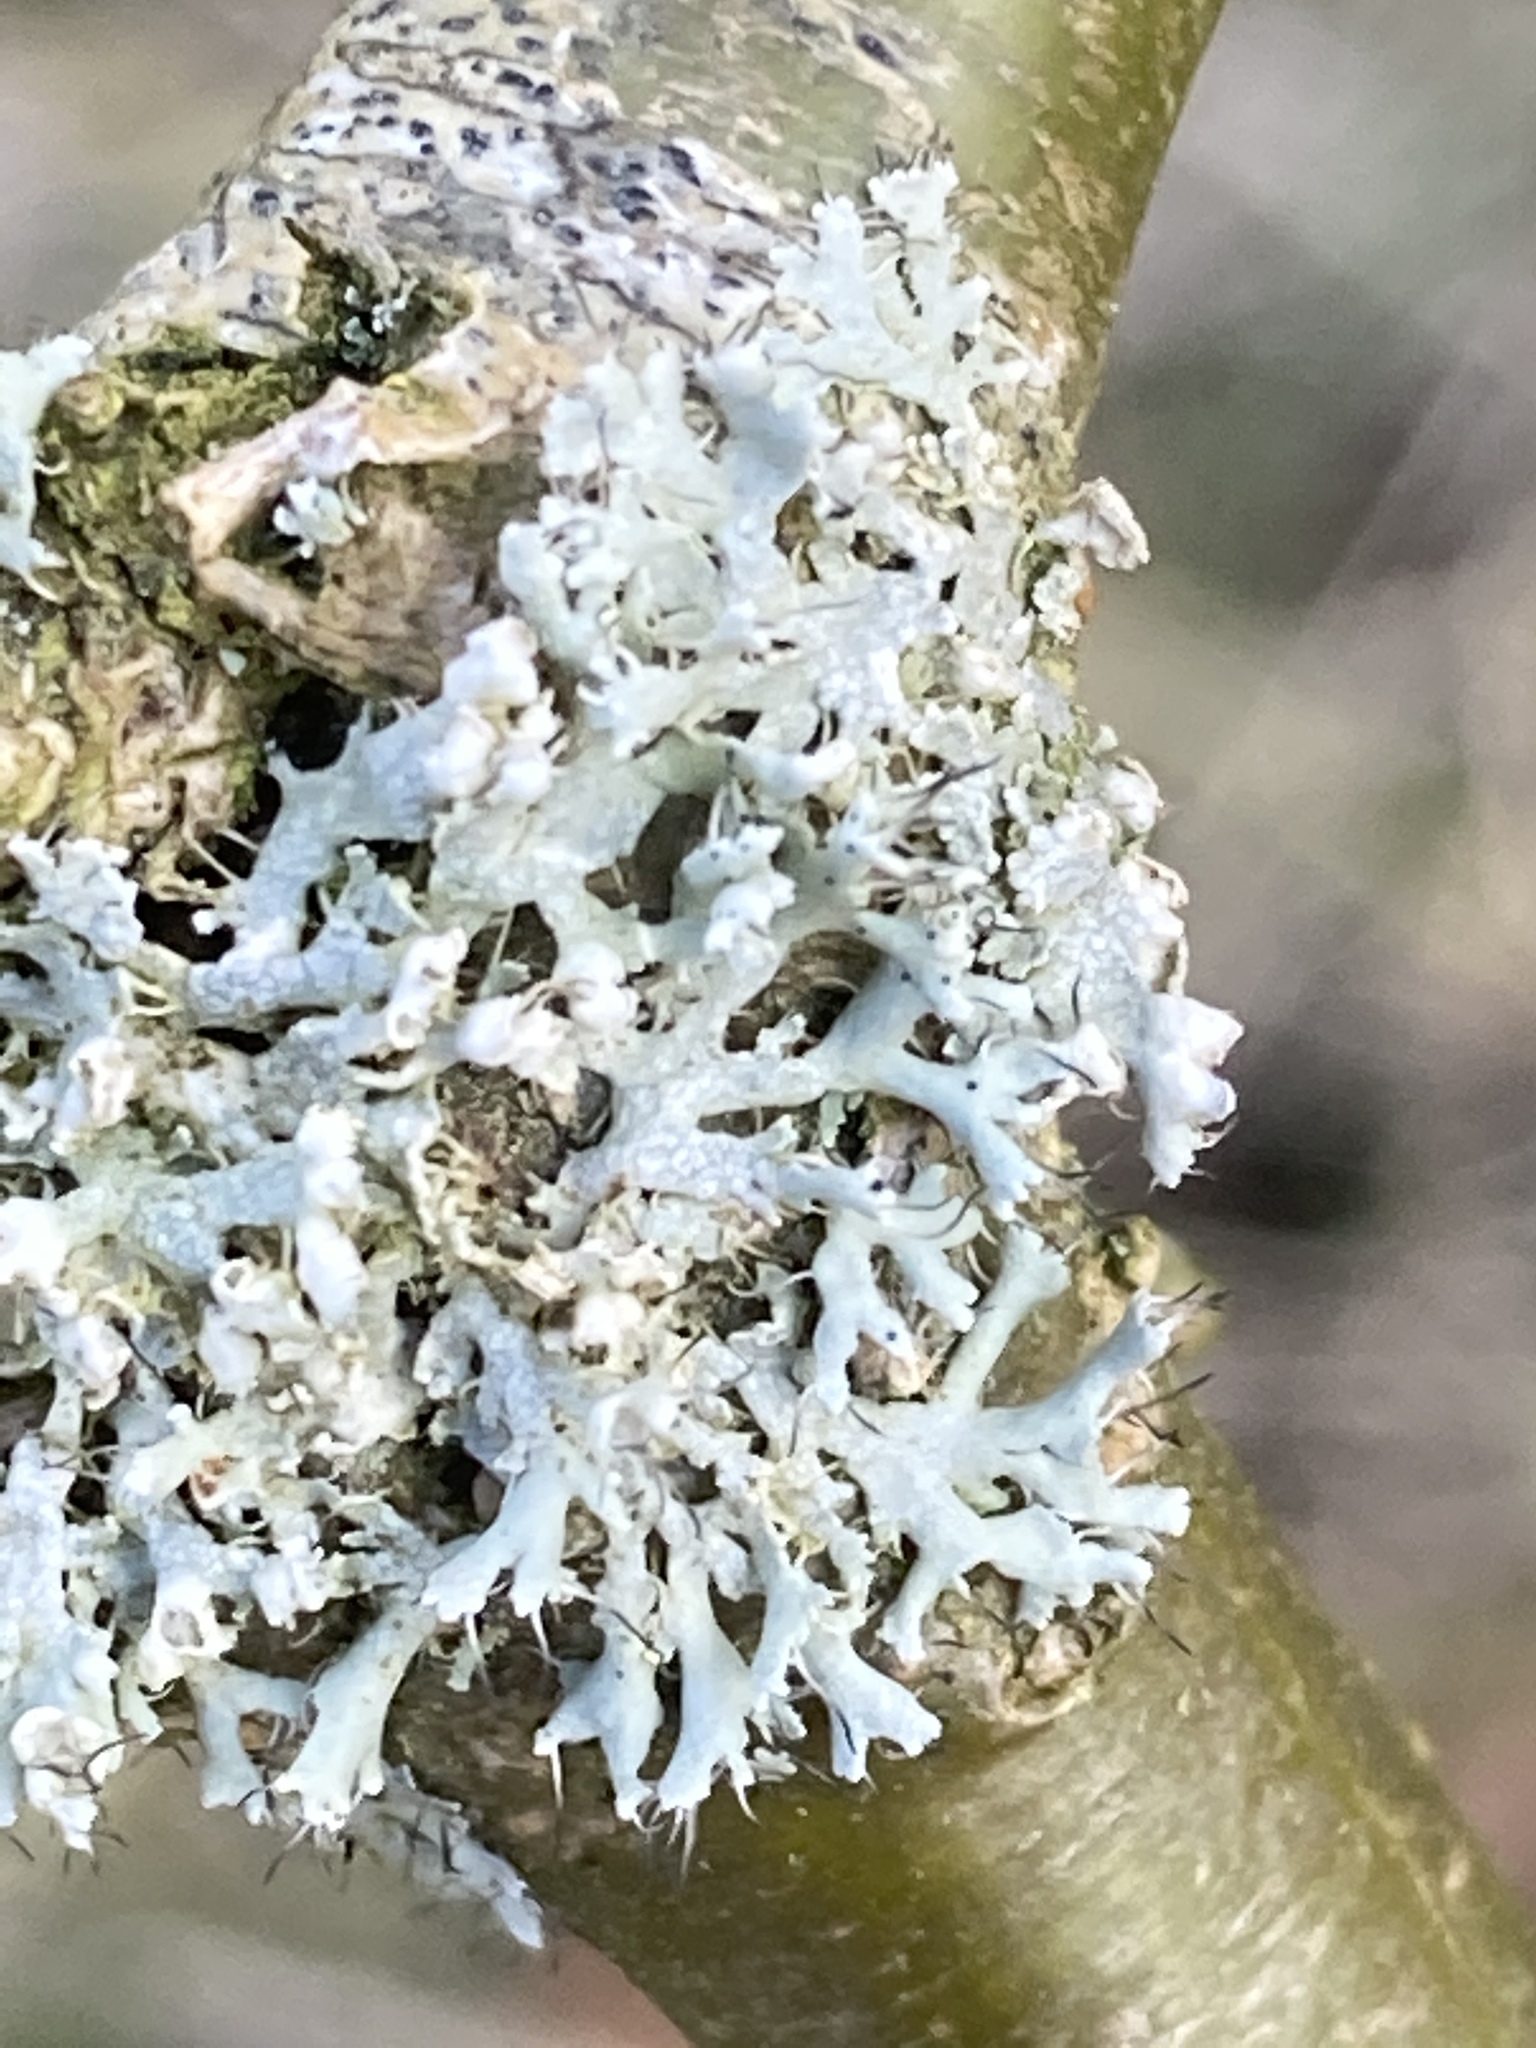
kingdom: Fungi
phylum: Ascomycota
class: Lecanoromycetes
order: Caliciales
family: Physciaceae
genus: Physcia
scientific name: Physcia adscendens
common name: Hooded rosette lichen
